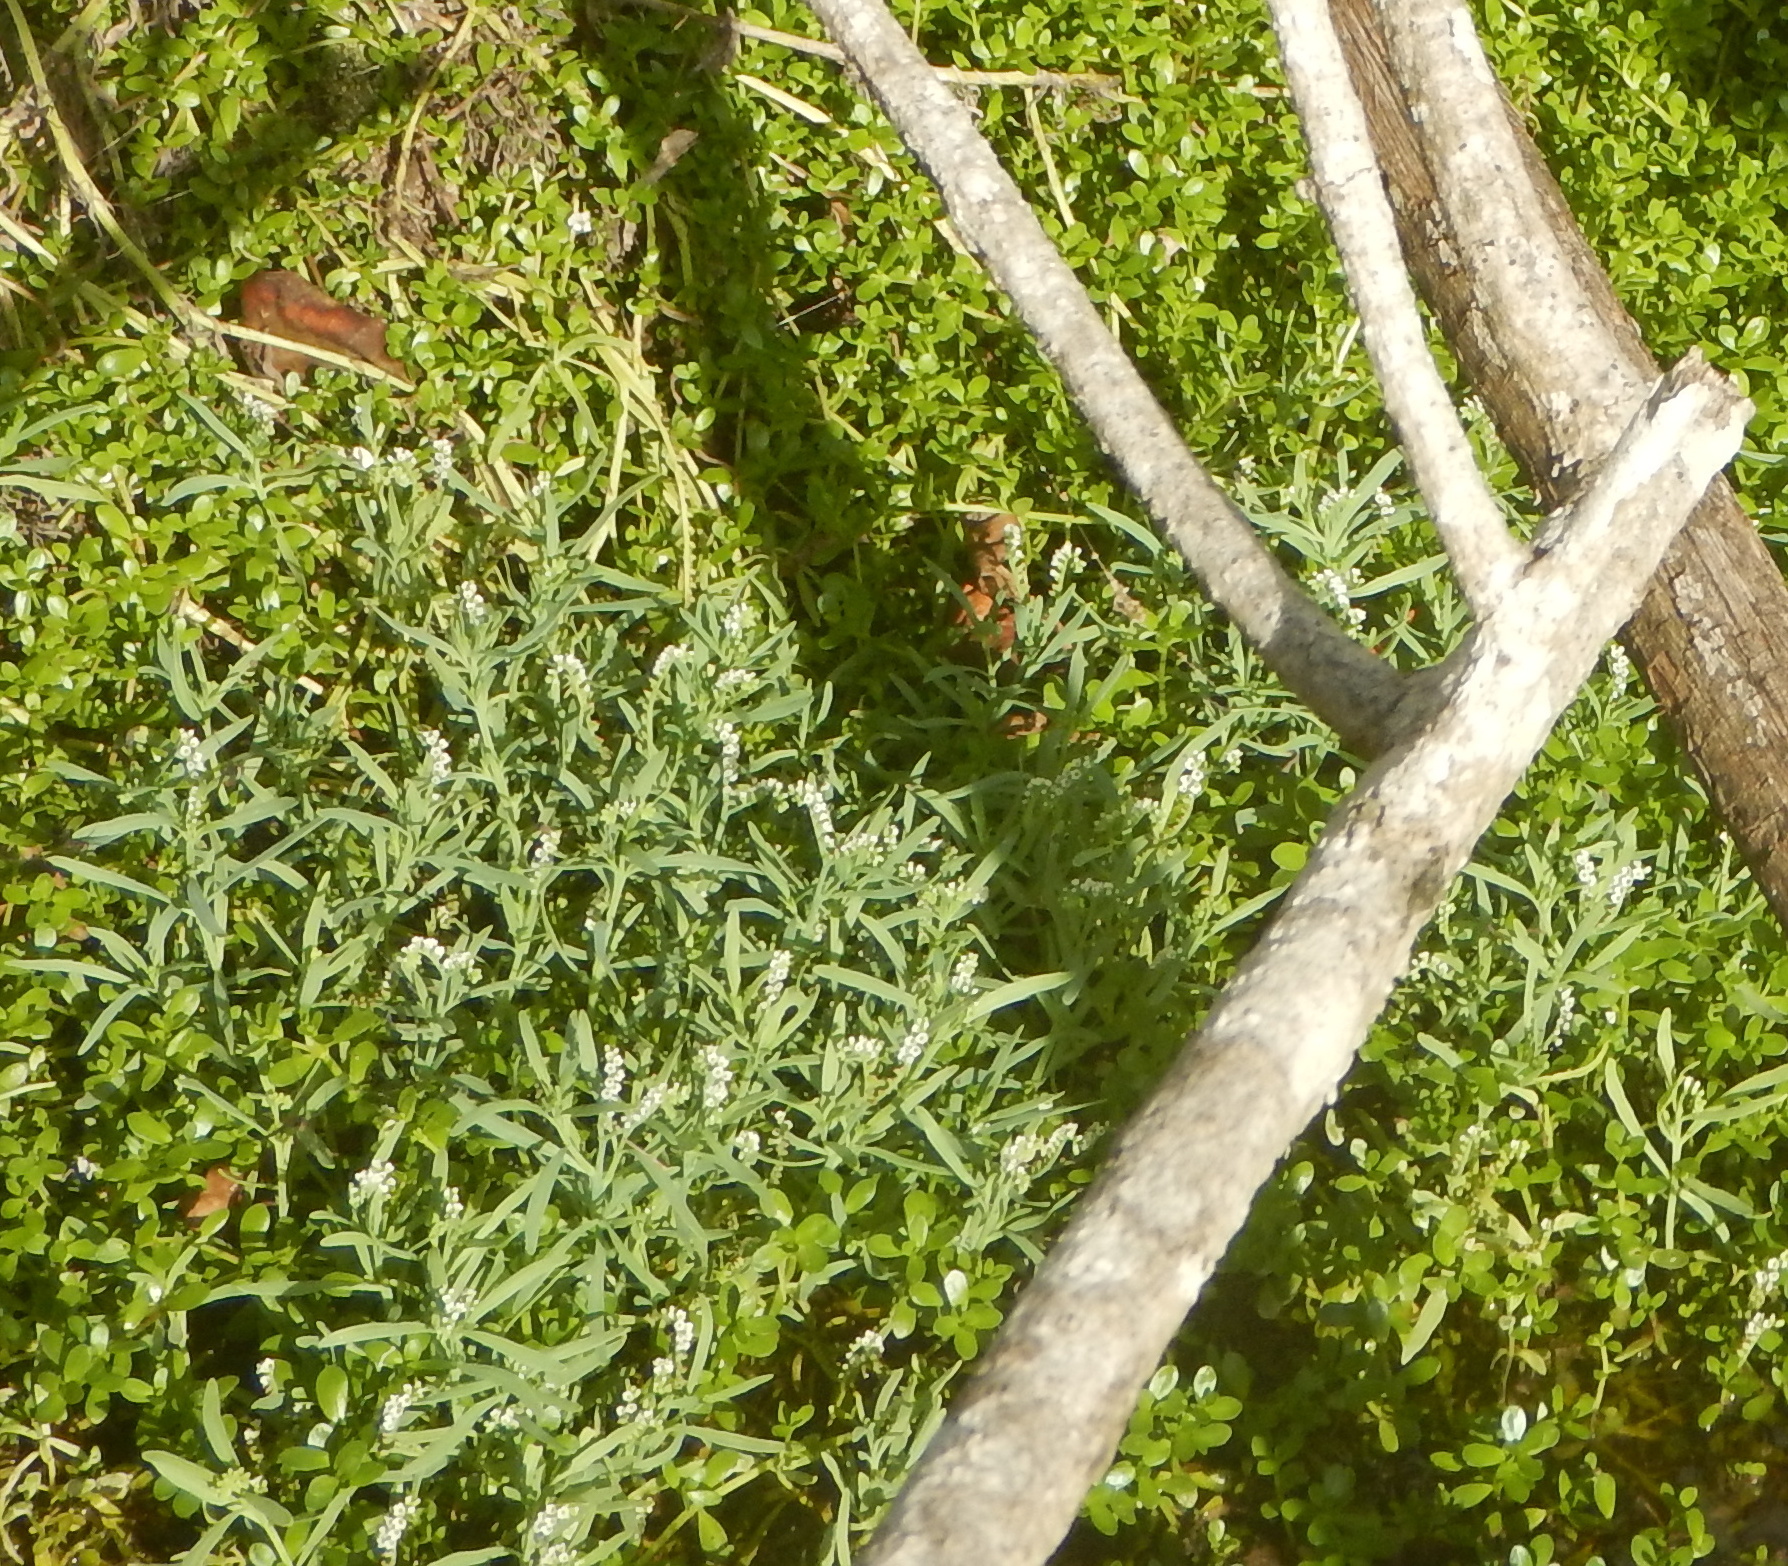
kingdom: Plantae
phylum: Tracheophyta
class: Magnoliopsida
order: Boraginales
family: Heliotropiaceae
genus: Heliotropium
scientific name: Heliotropium curassavicum
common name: Seaside heliotrope
